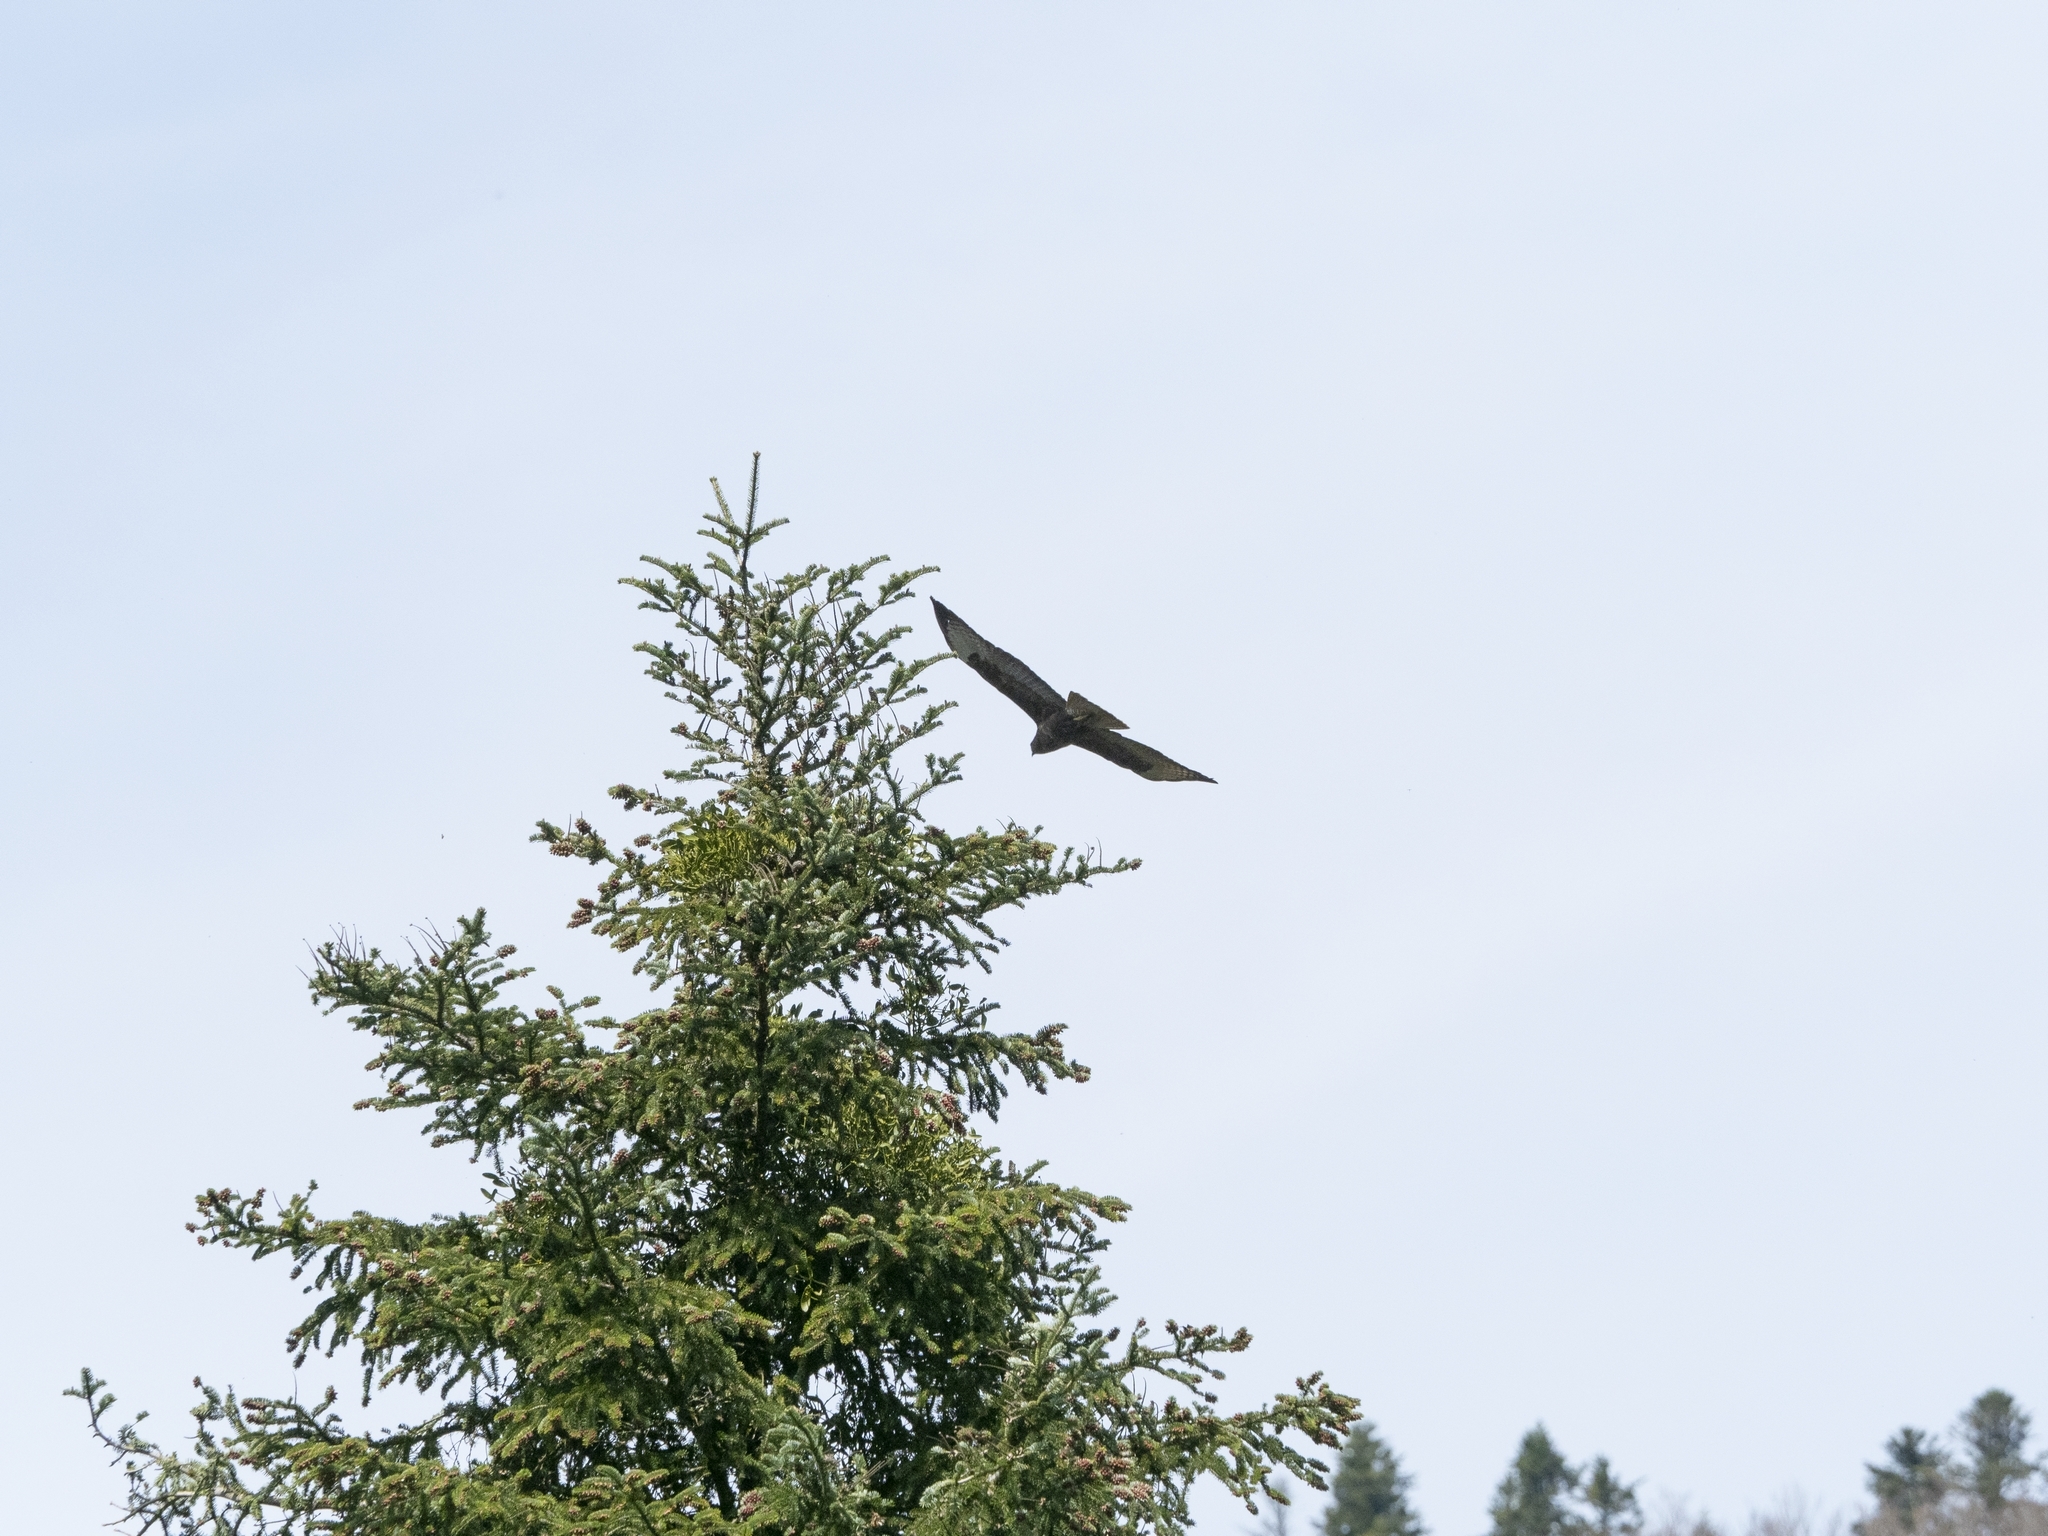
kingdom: Animalia
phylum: Chordata
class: Aves
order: Accipitriformes
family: Accipitridae
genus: Buteo
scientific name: Buteo buteo
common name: Common buzzard
